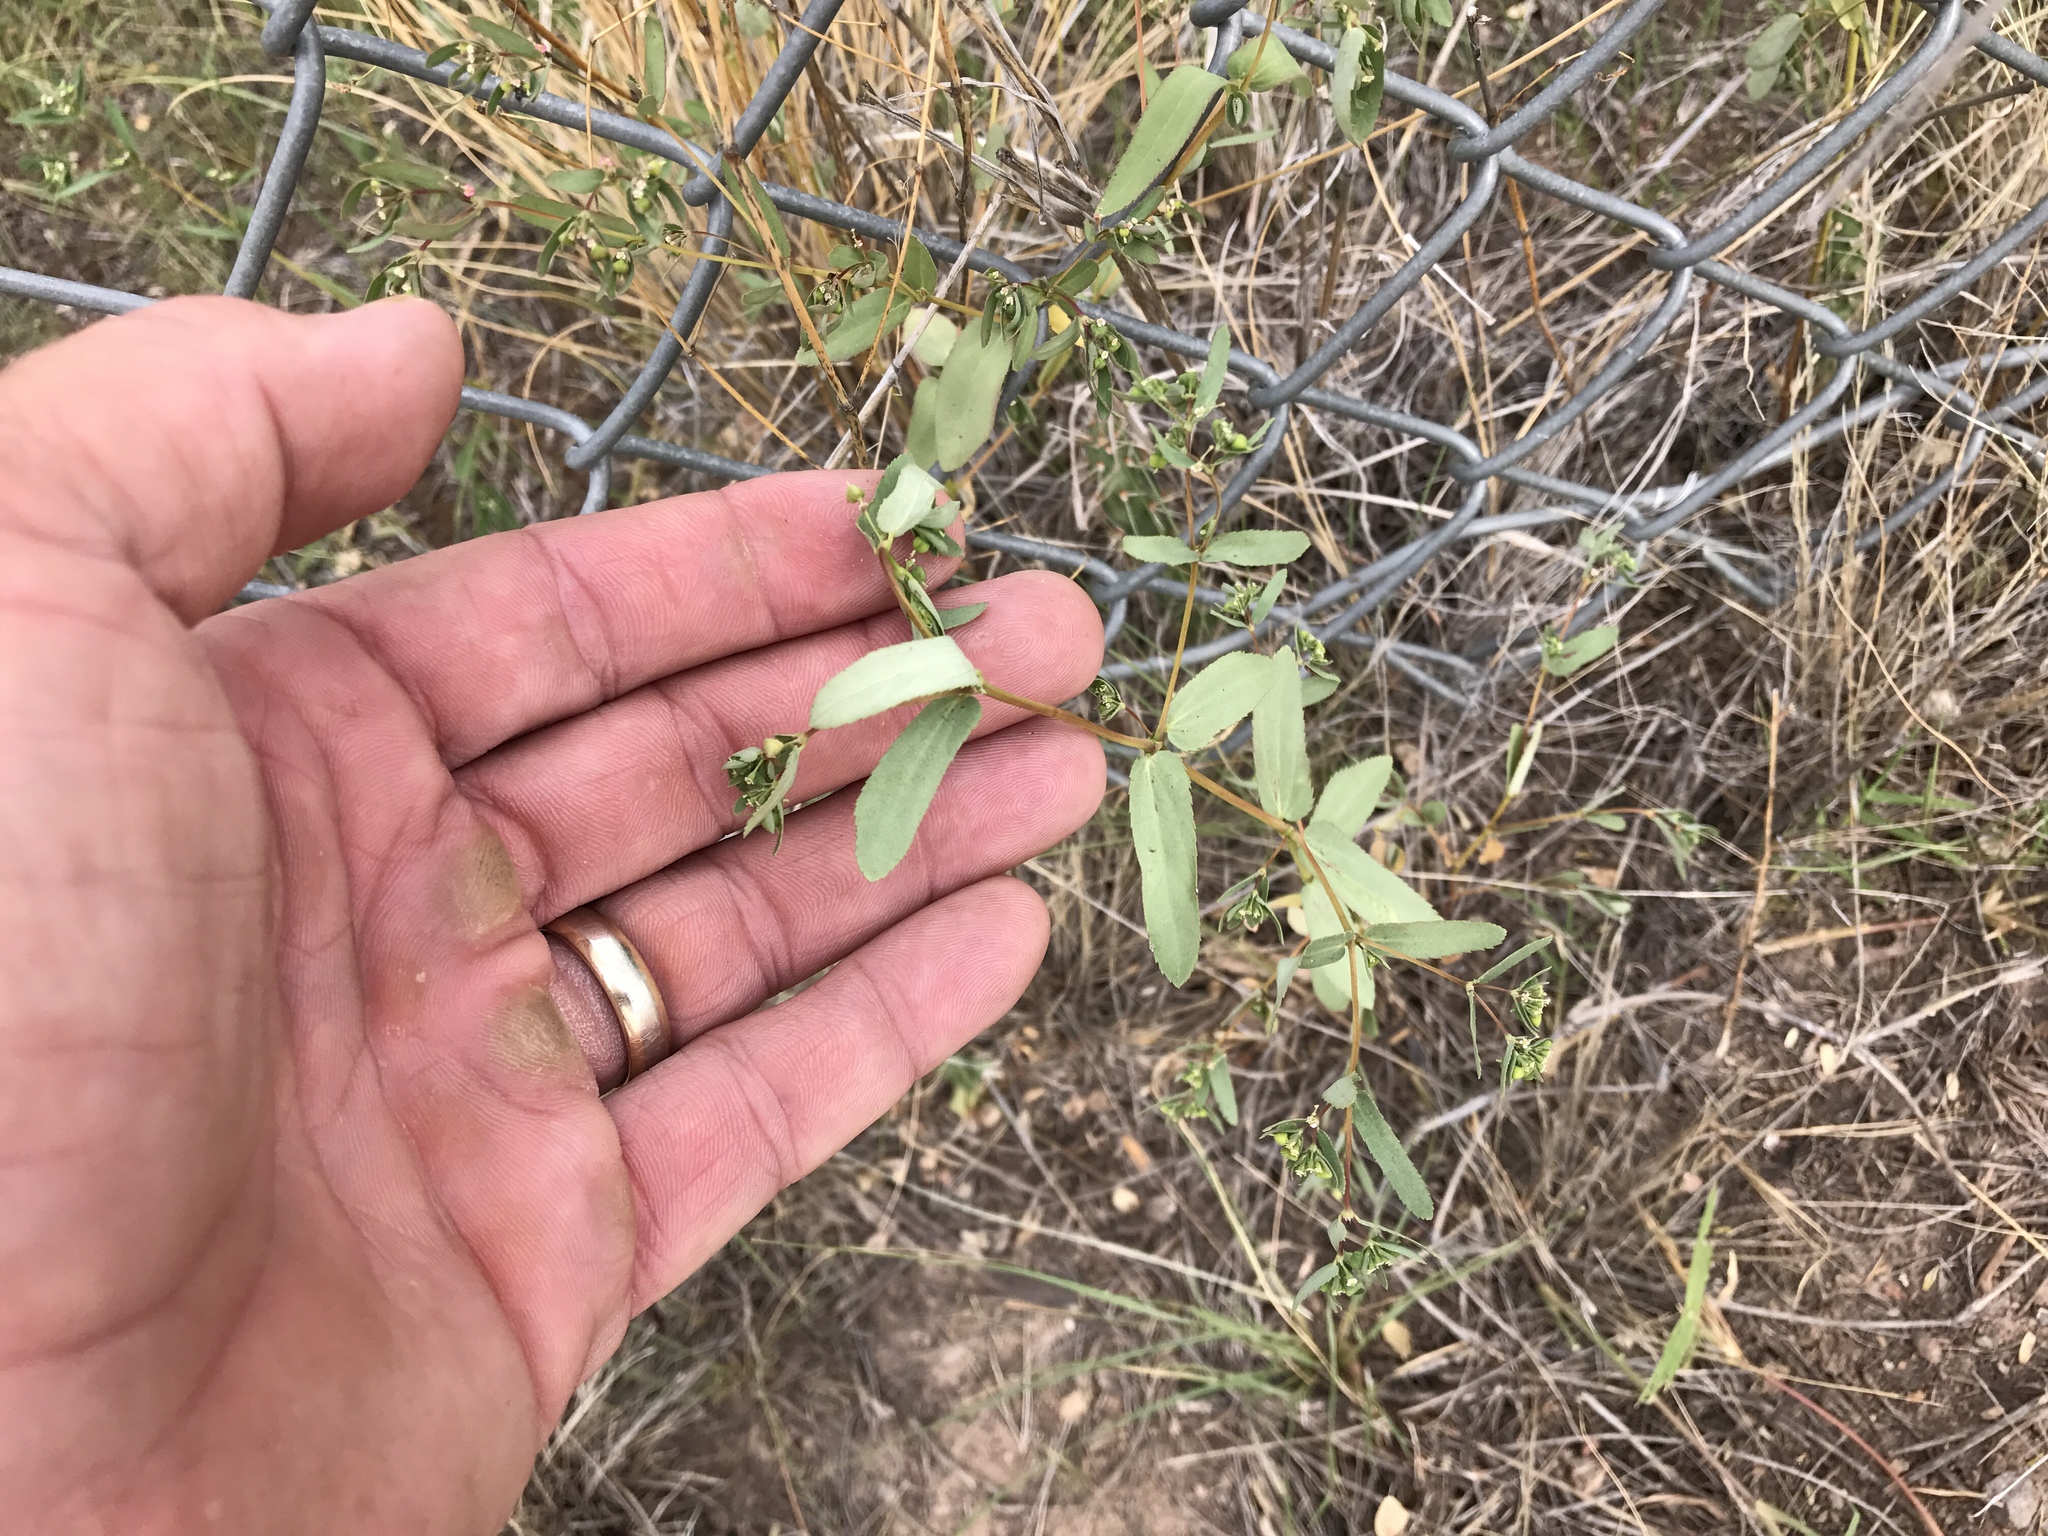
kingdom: Plantae
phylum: Tracheophyta
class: Magnoliopsida
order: Malpighiales
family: Euphorbiaceae
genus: Euphorbia
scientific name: Euphorbia hyssopifolia
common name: Hyssopleaf sandmat
